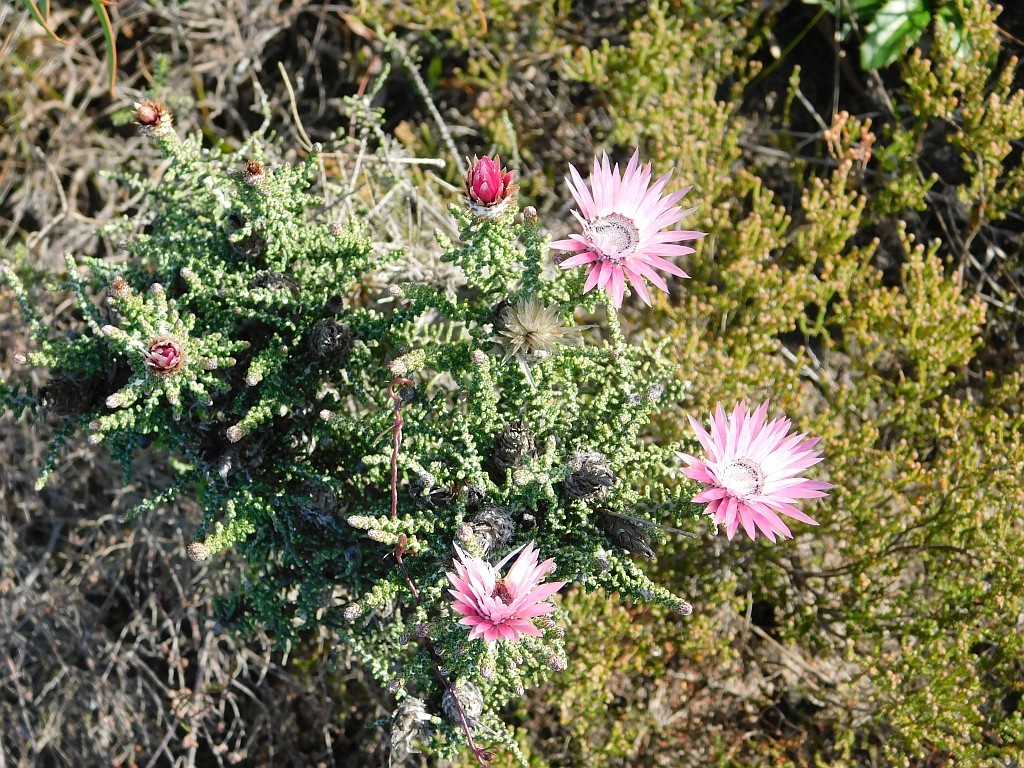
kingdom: Plantae
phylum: Tracheophyta
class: Magnoliopsida
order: Asterales
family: Asteraceae
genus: Phaenocoma
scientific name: Phaenocoma prolifera
